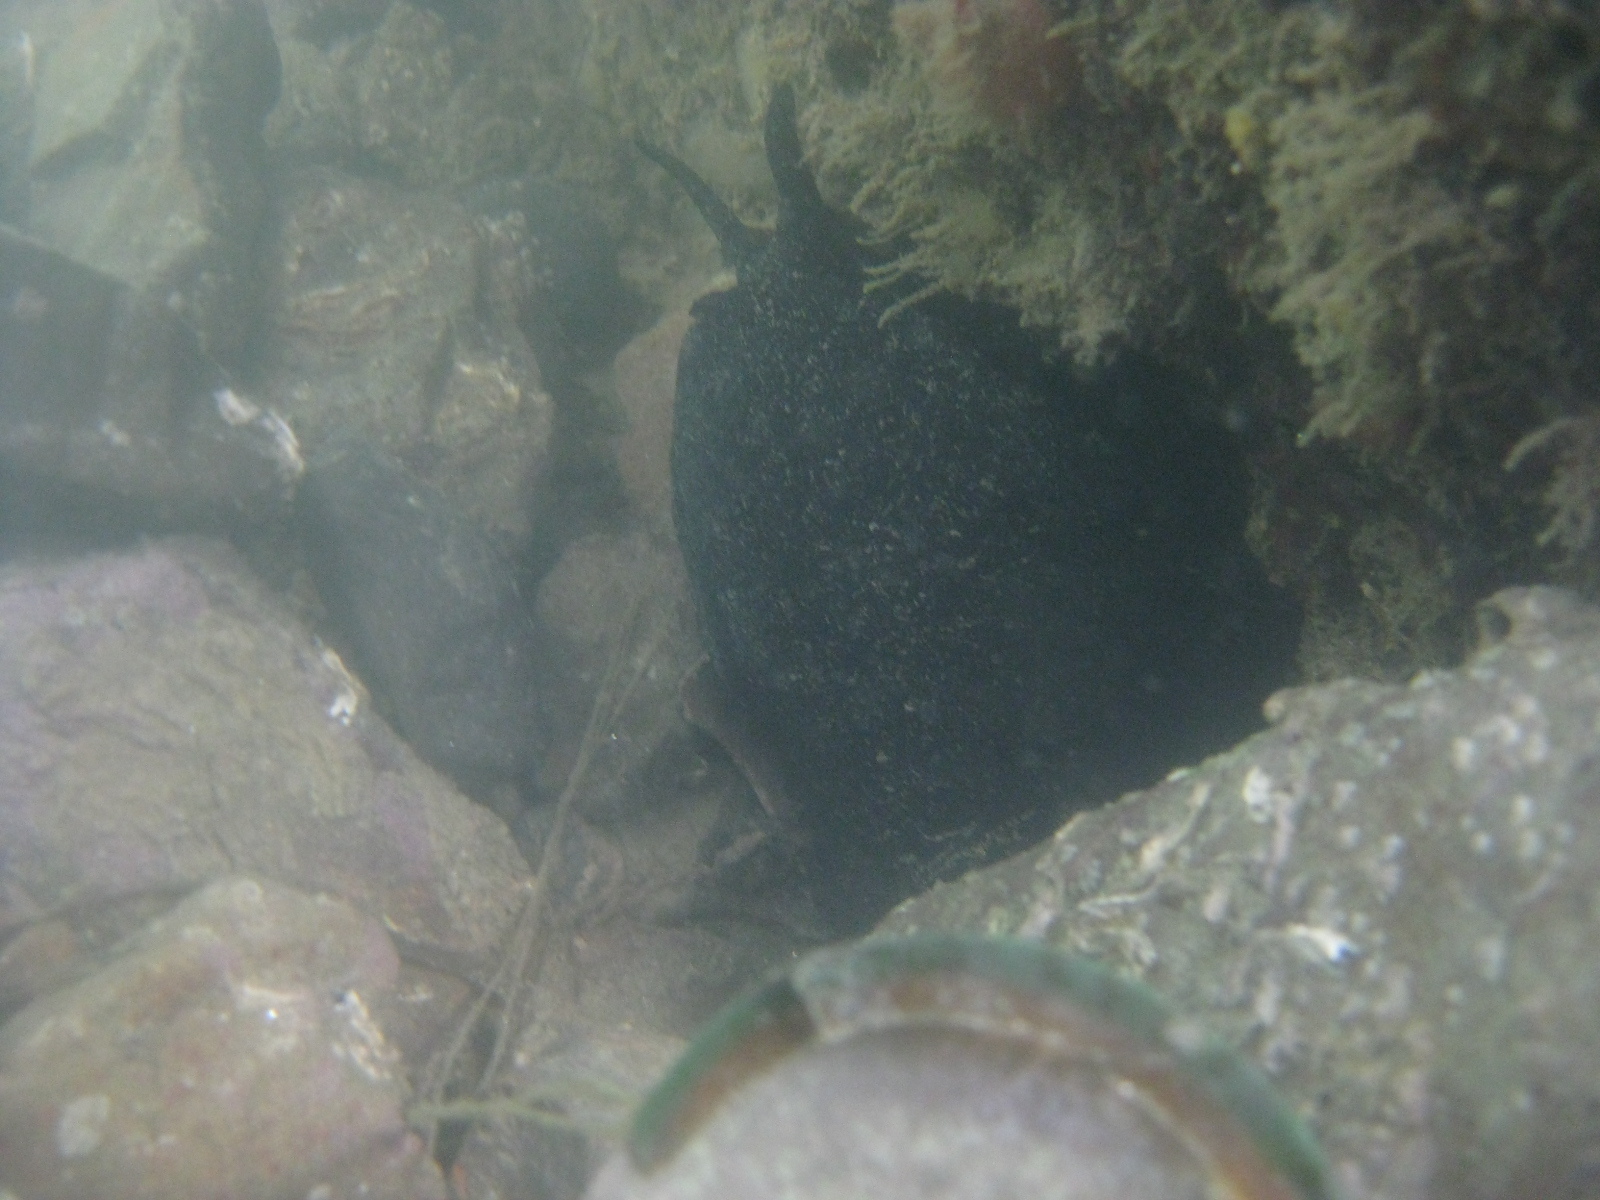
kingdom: Animalia
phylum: Mollusca
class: Gastropoda
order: Lepetellida
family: Fissurellidae
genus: Scutus
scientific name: Scutus breviculus
